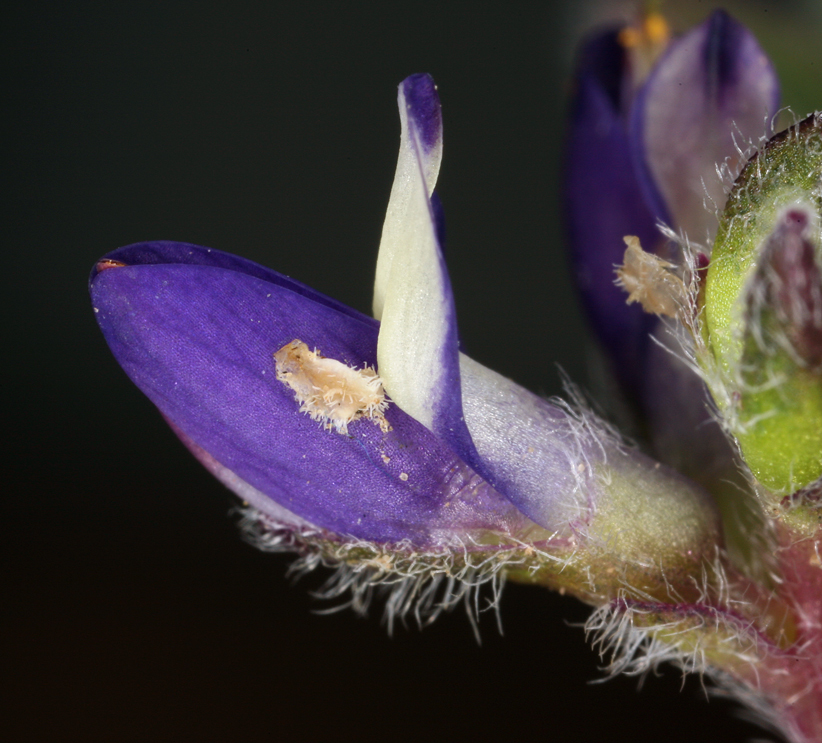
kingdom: Plantae
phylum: Tracheophyta
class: Magnoliopsida
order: Fabales
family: Fabaceae
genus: Lupinus
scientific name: Lupinus brevicaulis
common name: Sand lupine
